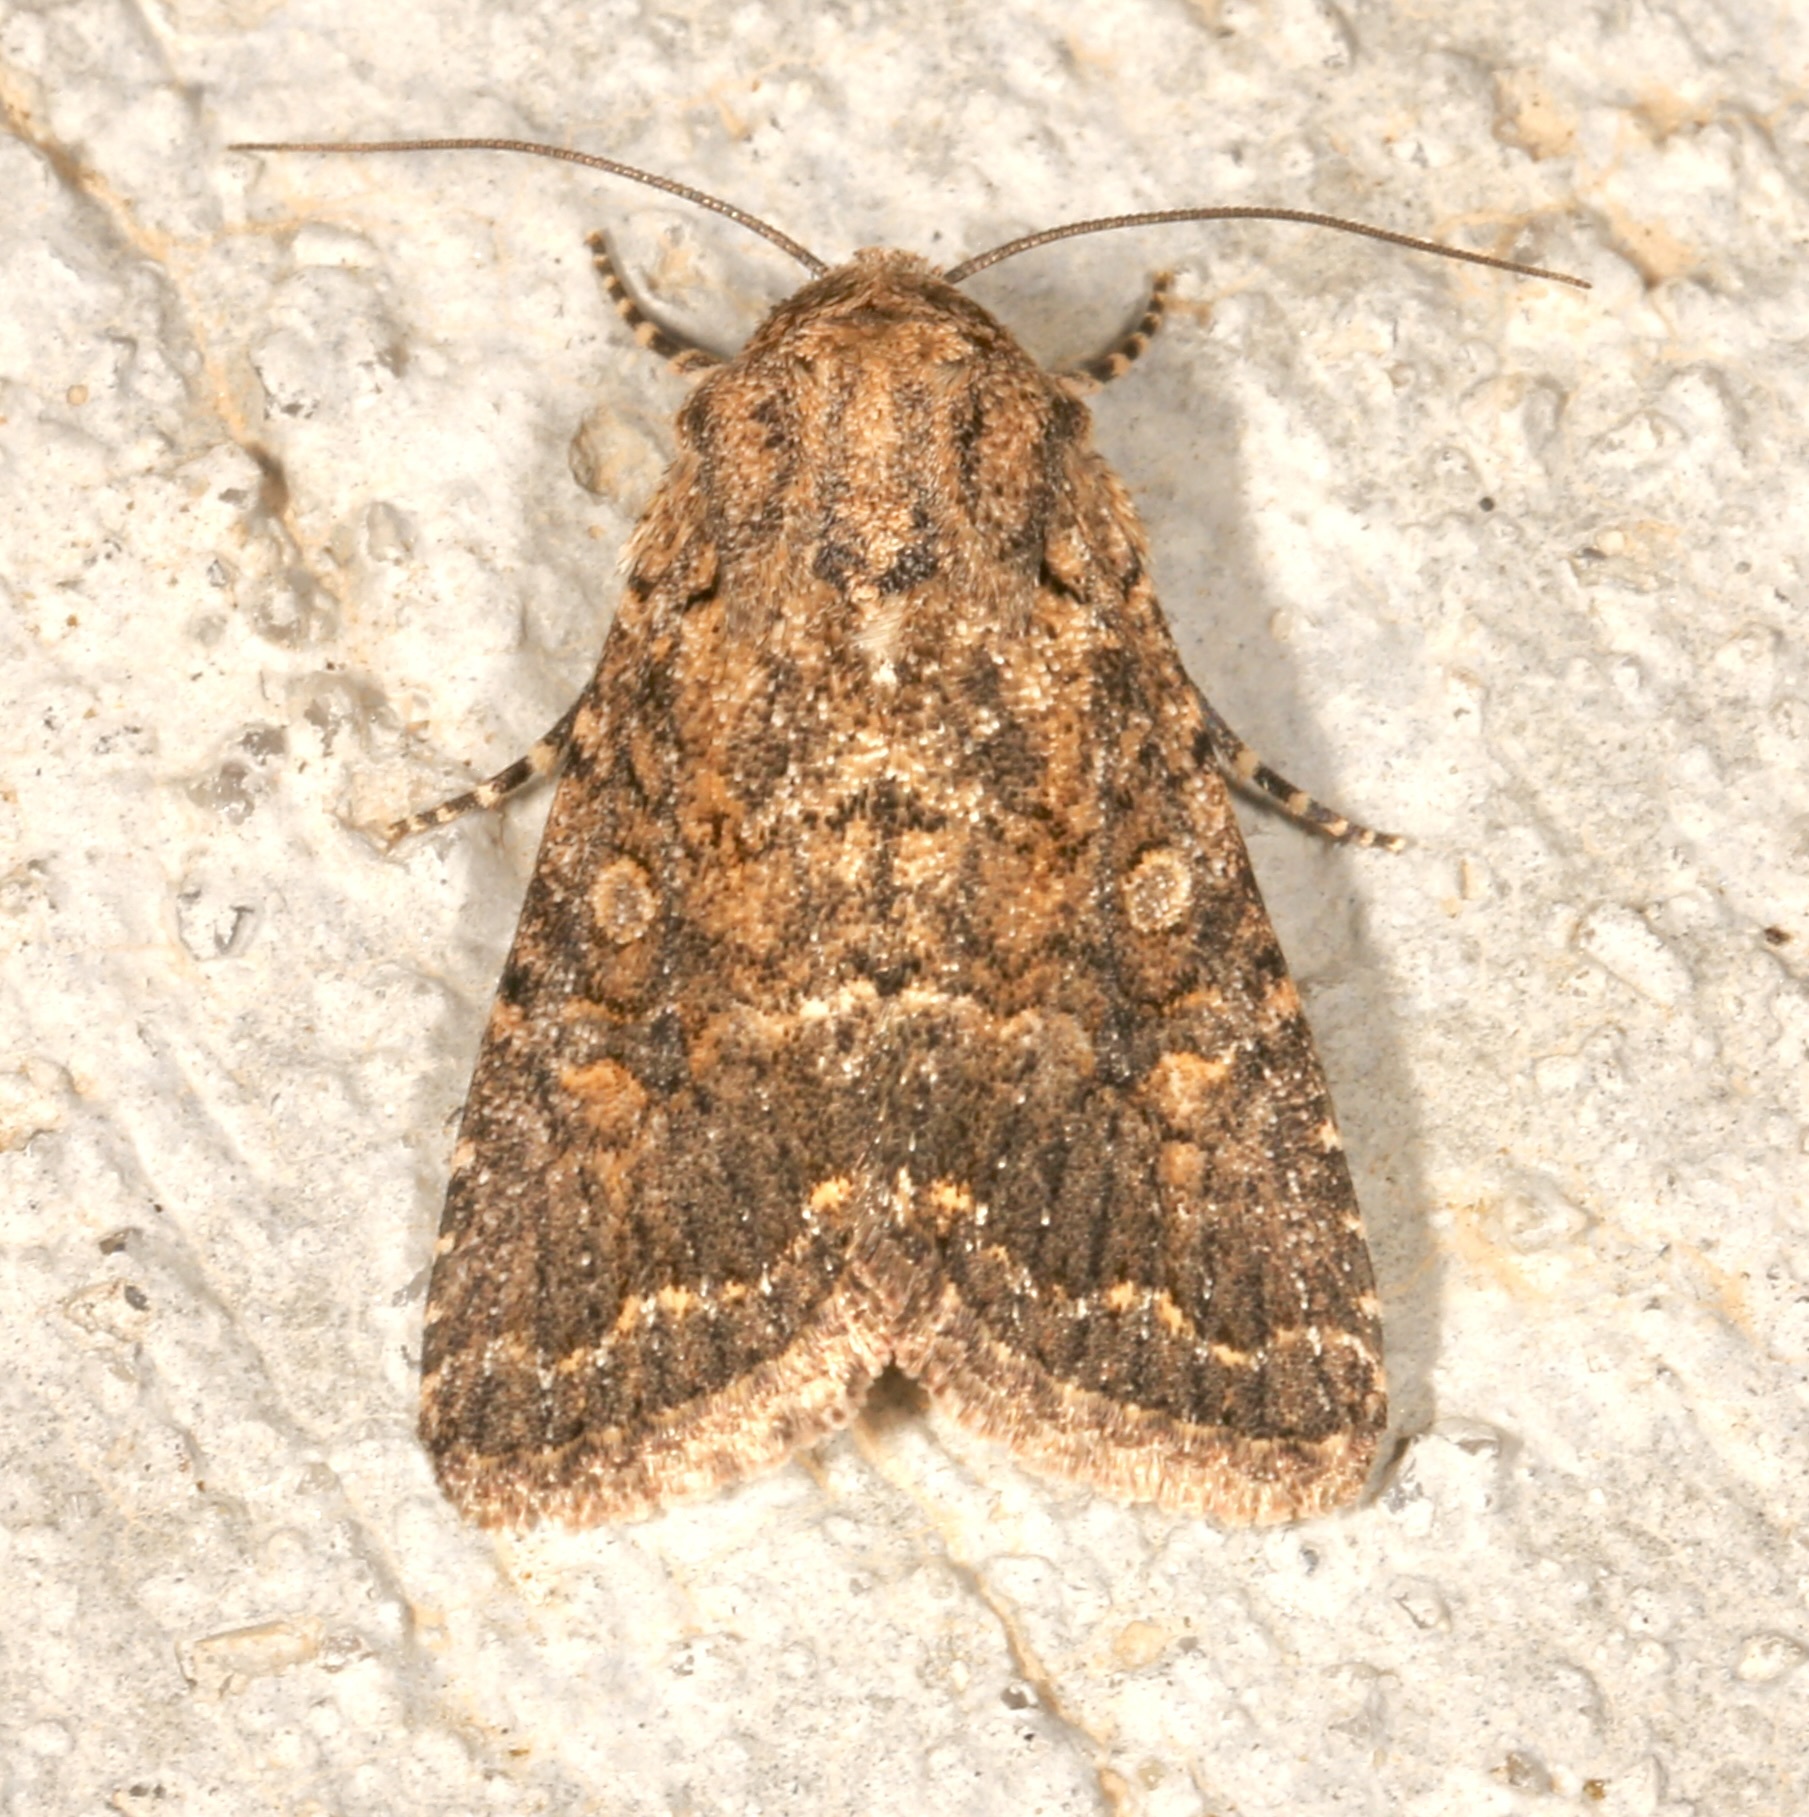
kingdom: Animalia
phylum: Arthropoda
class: Insecta
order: Lepidoptera
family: Noctuidae
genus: Trichopolia
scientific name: Trichopolia
